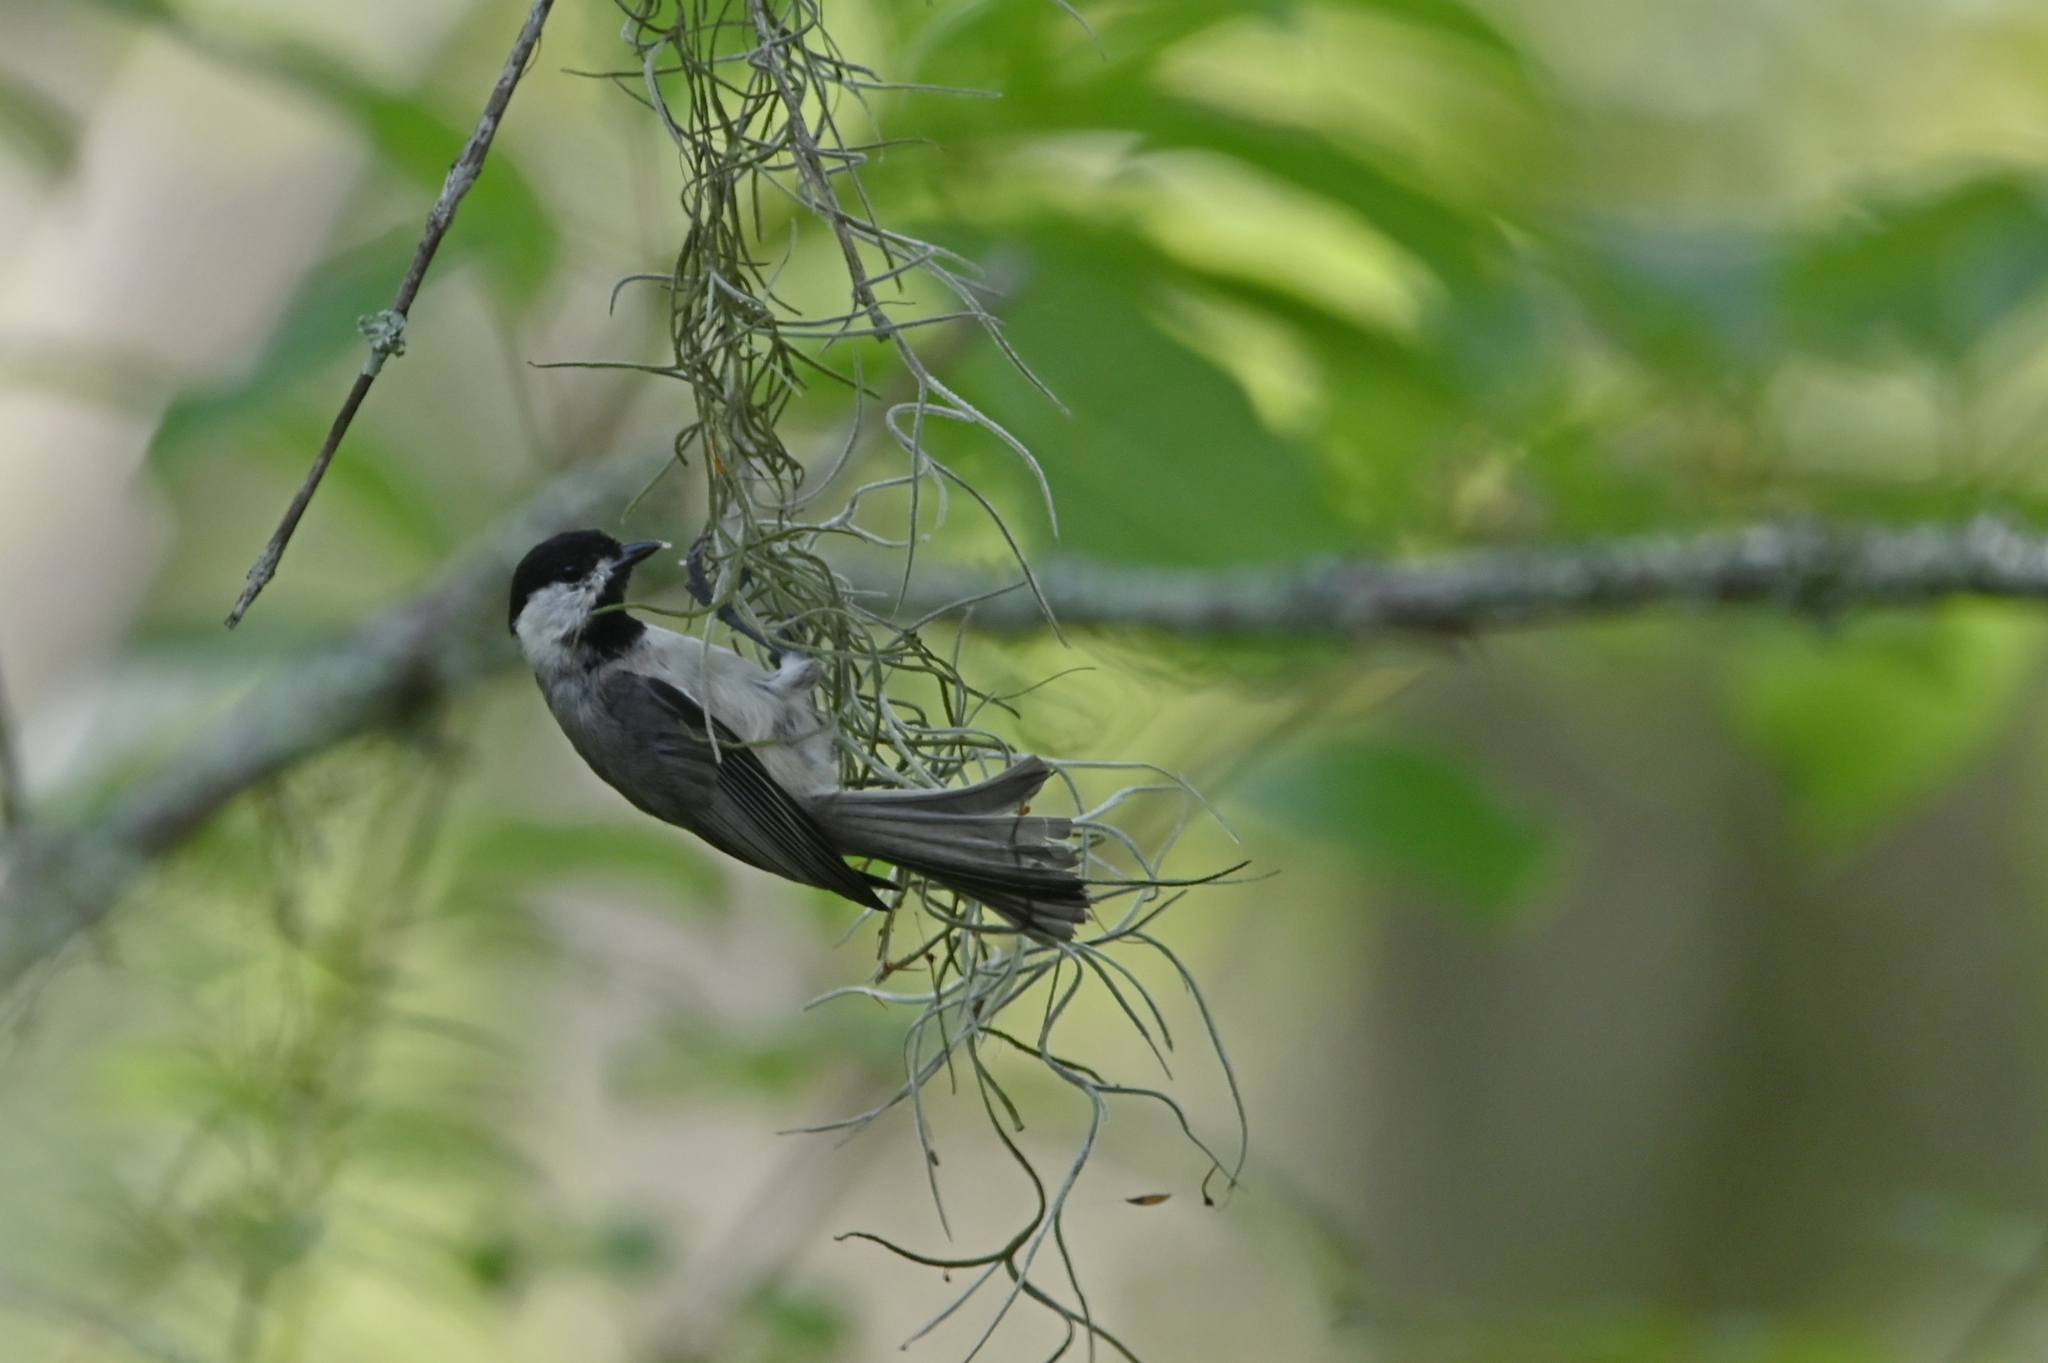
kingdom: Animalia
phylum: Chordata
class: Aves
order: Passeriformes
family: Paridae
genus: Poecile
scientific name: Poecile carolinensis
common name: Carolina chickadee
